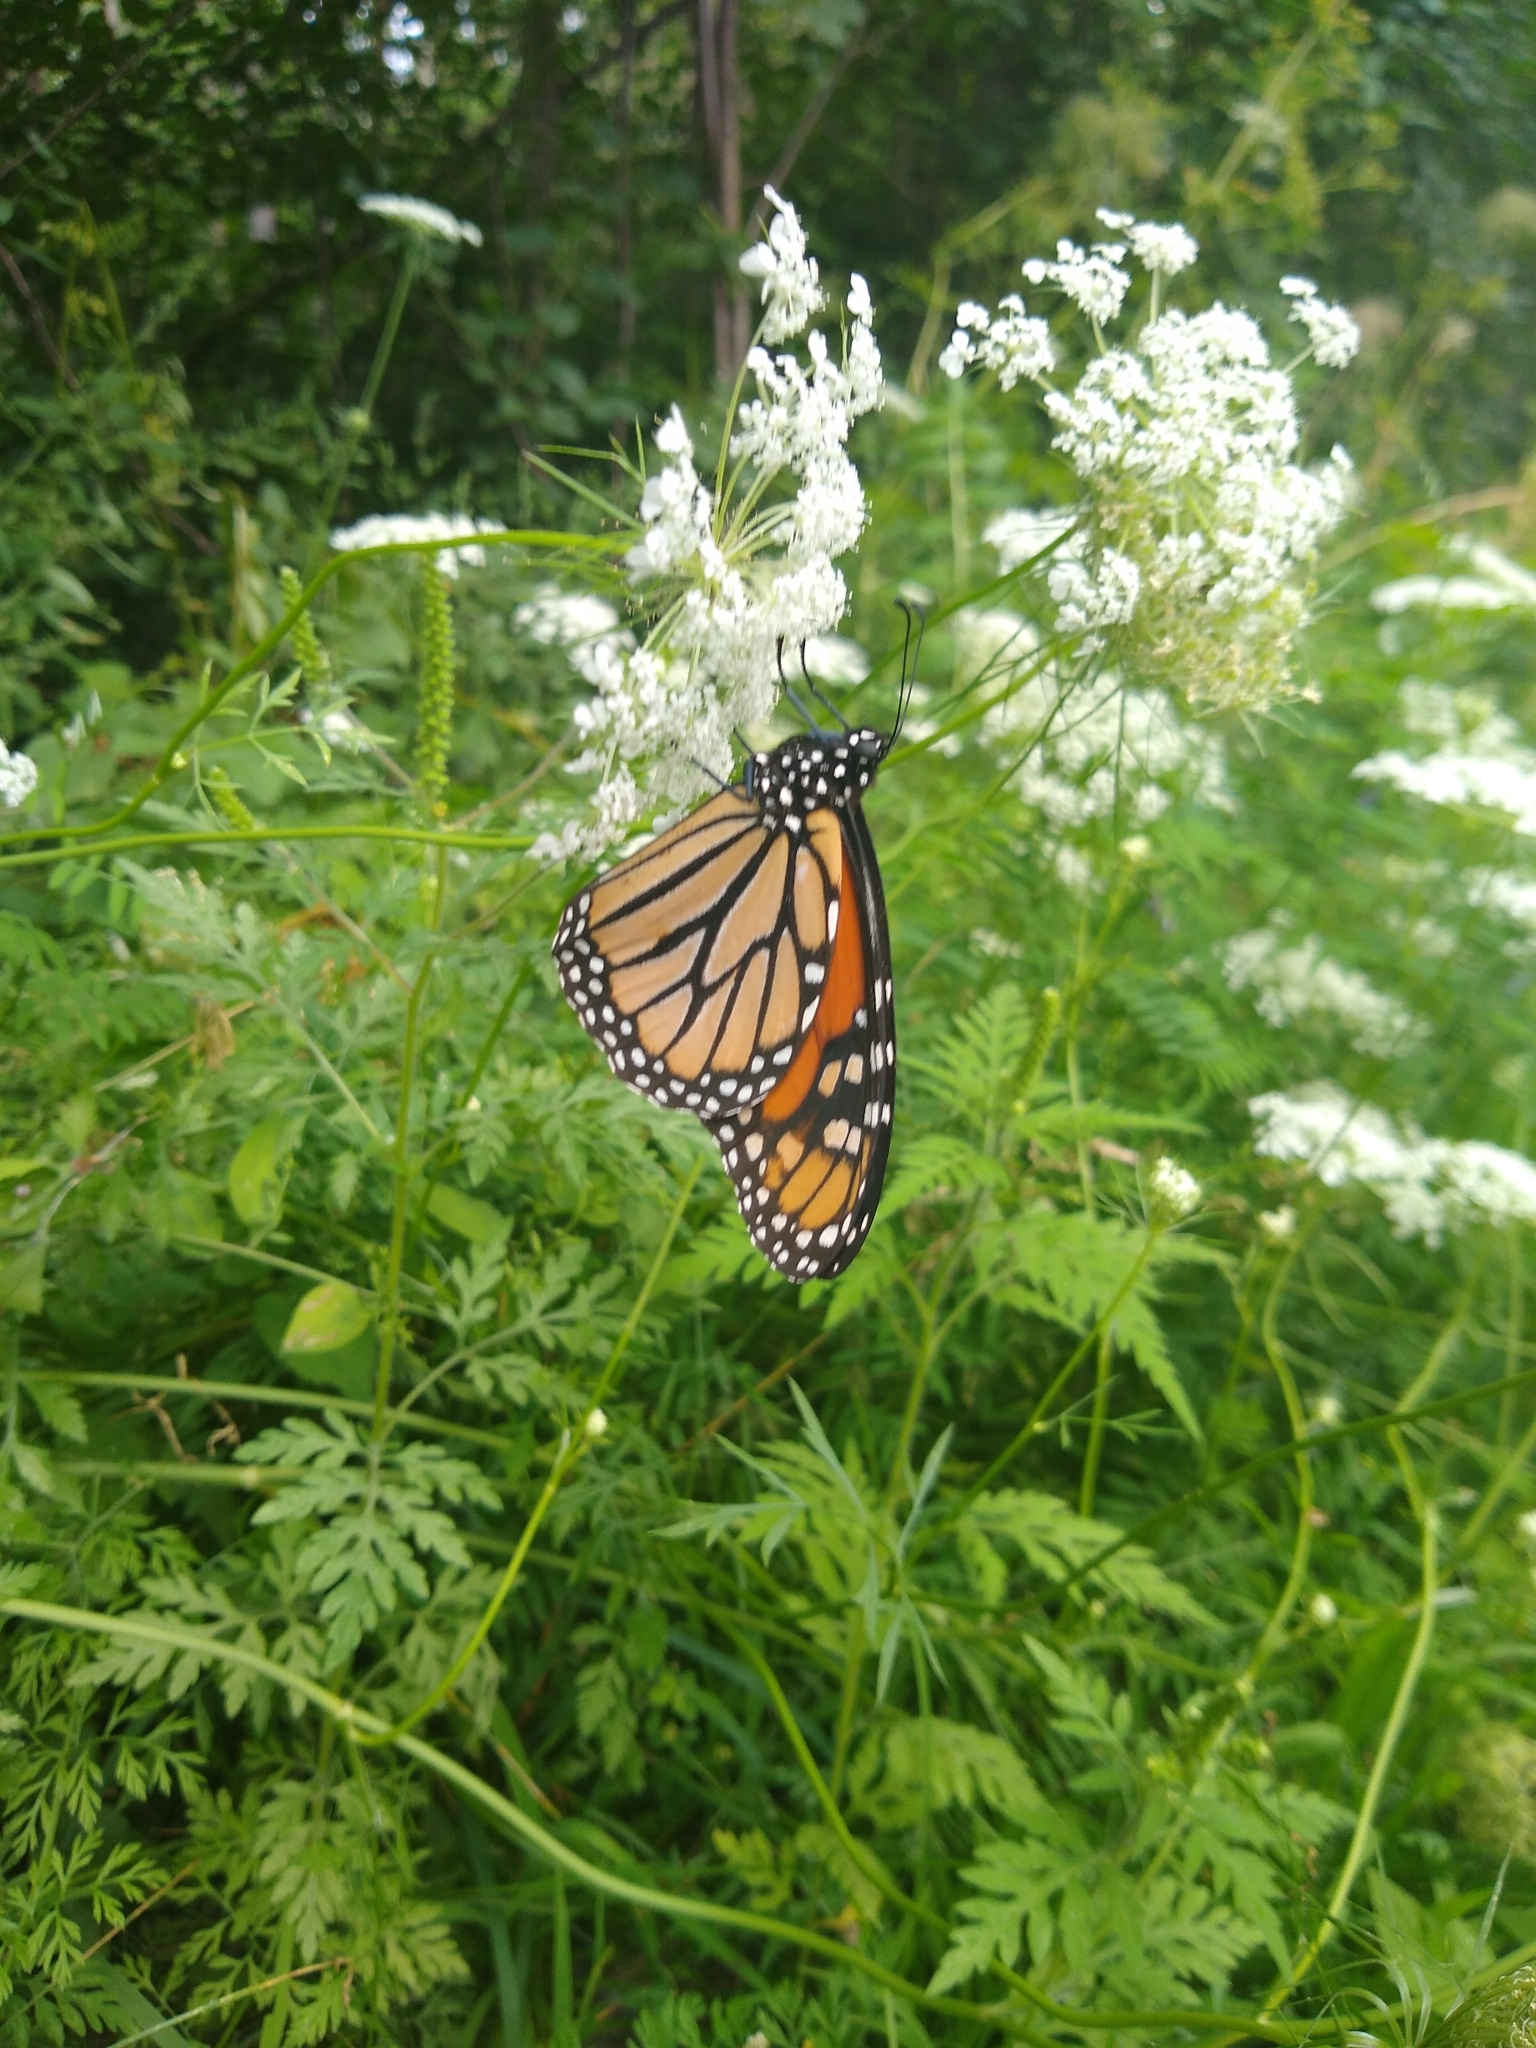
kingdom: Animalia
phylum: Arthropoda
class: Insecta
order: Lepidoptera
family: Nymphalidae
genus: Danaus
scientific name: Danaus plexippus
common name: Monarch
